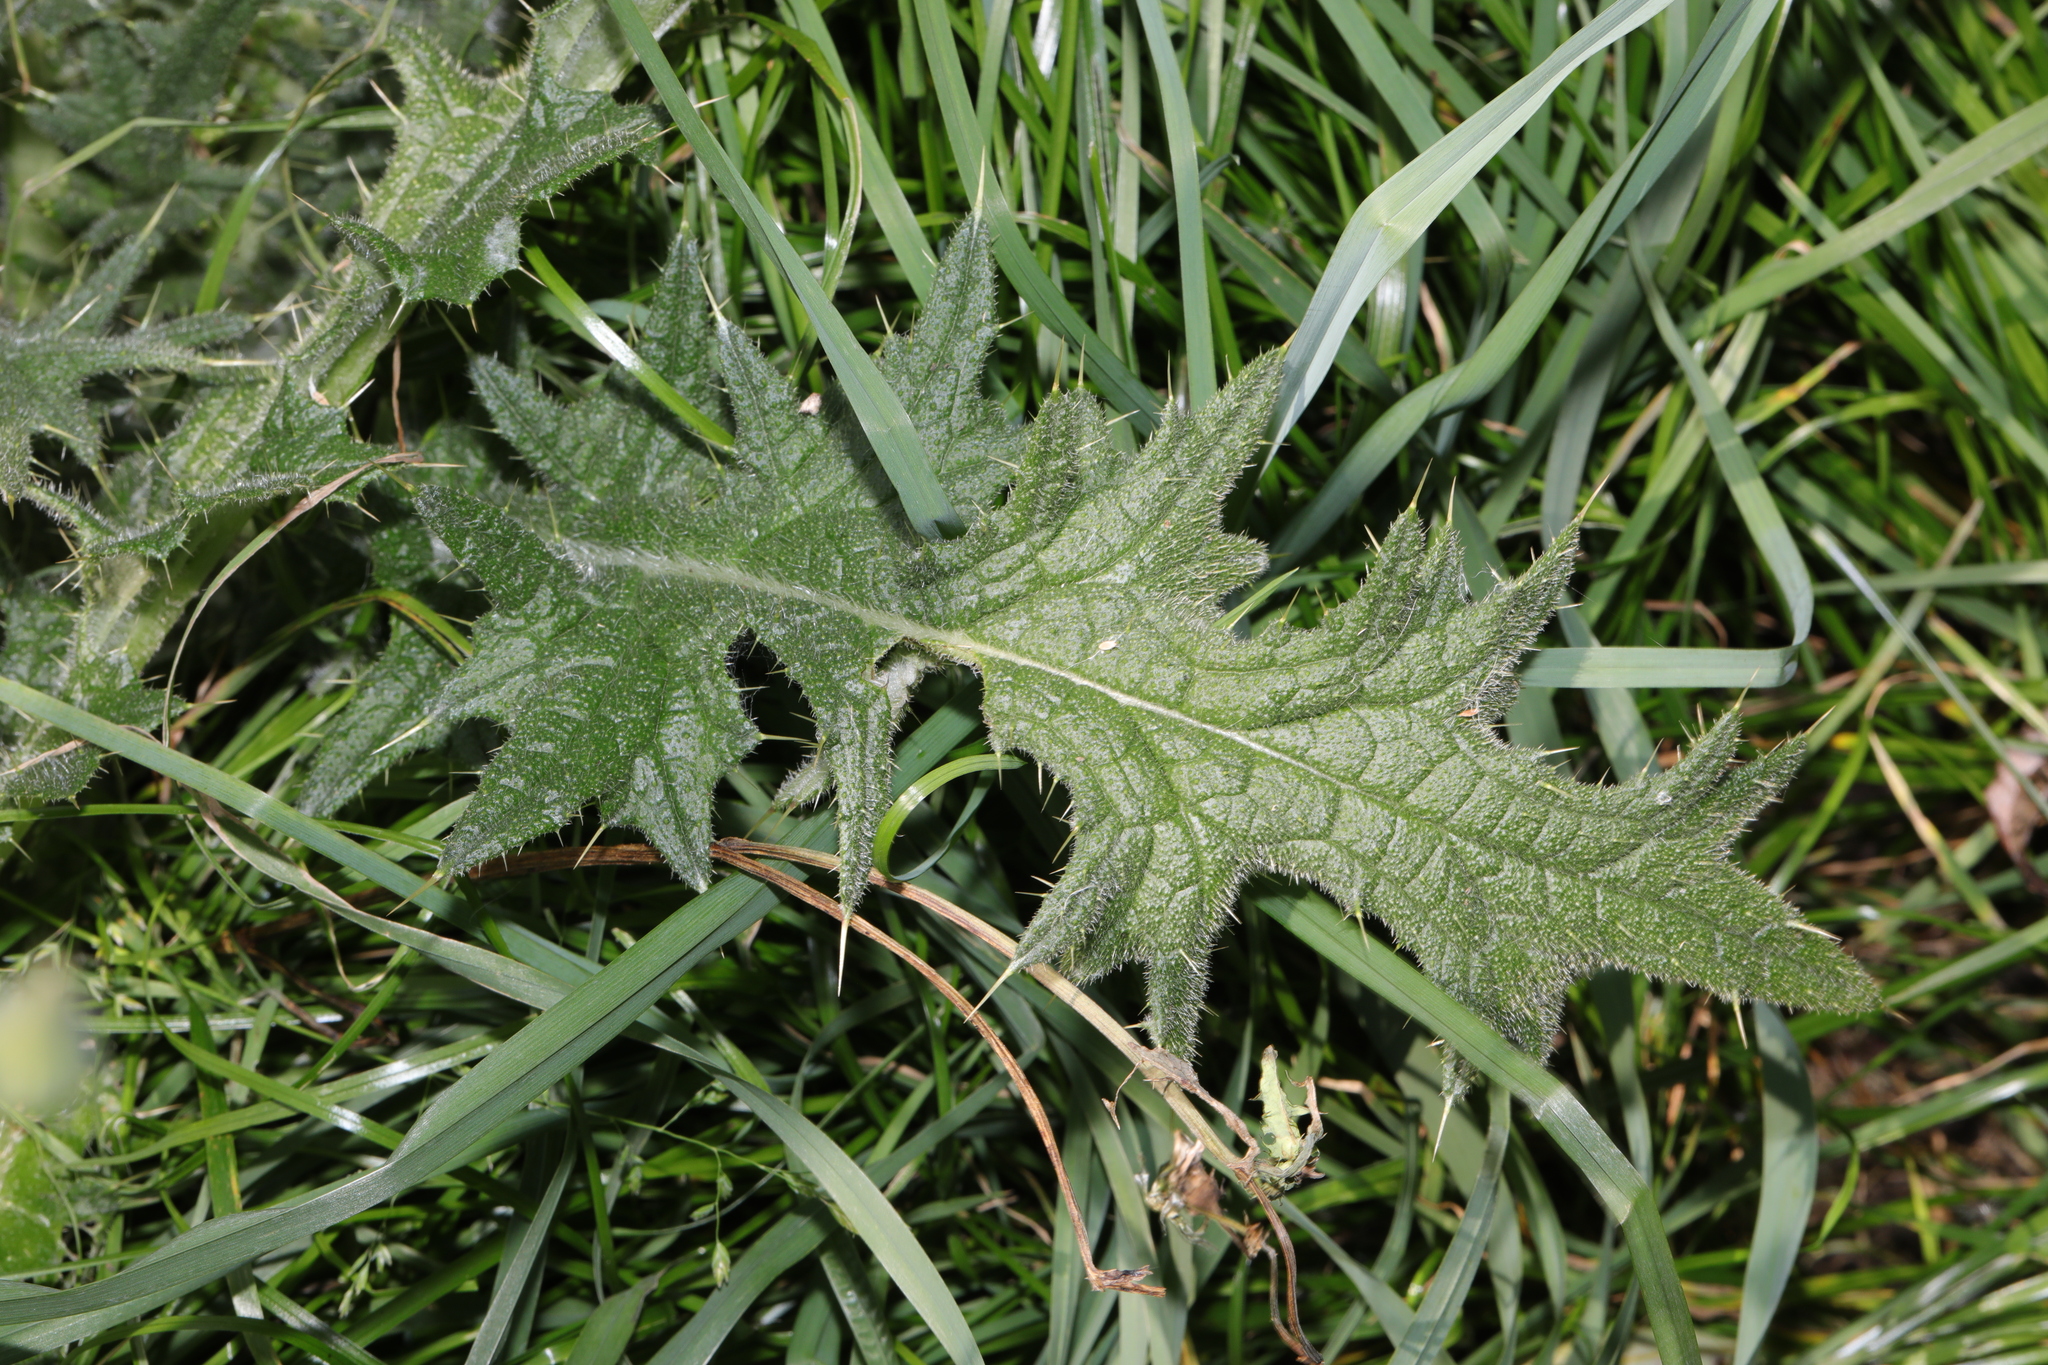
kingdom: Plantae
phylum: Tracheophyta
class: Magnoliopsida
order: Asterales
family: Asteraceae
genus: Cirsium
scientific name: Cirsium vulgare
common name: Bull thistle
